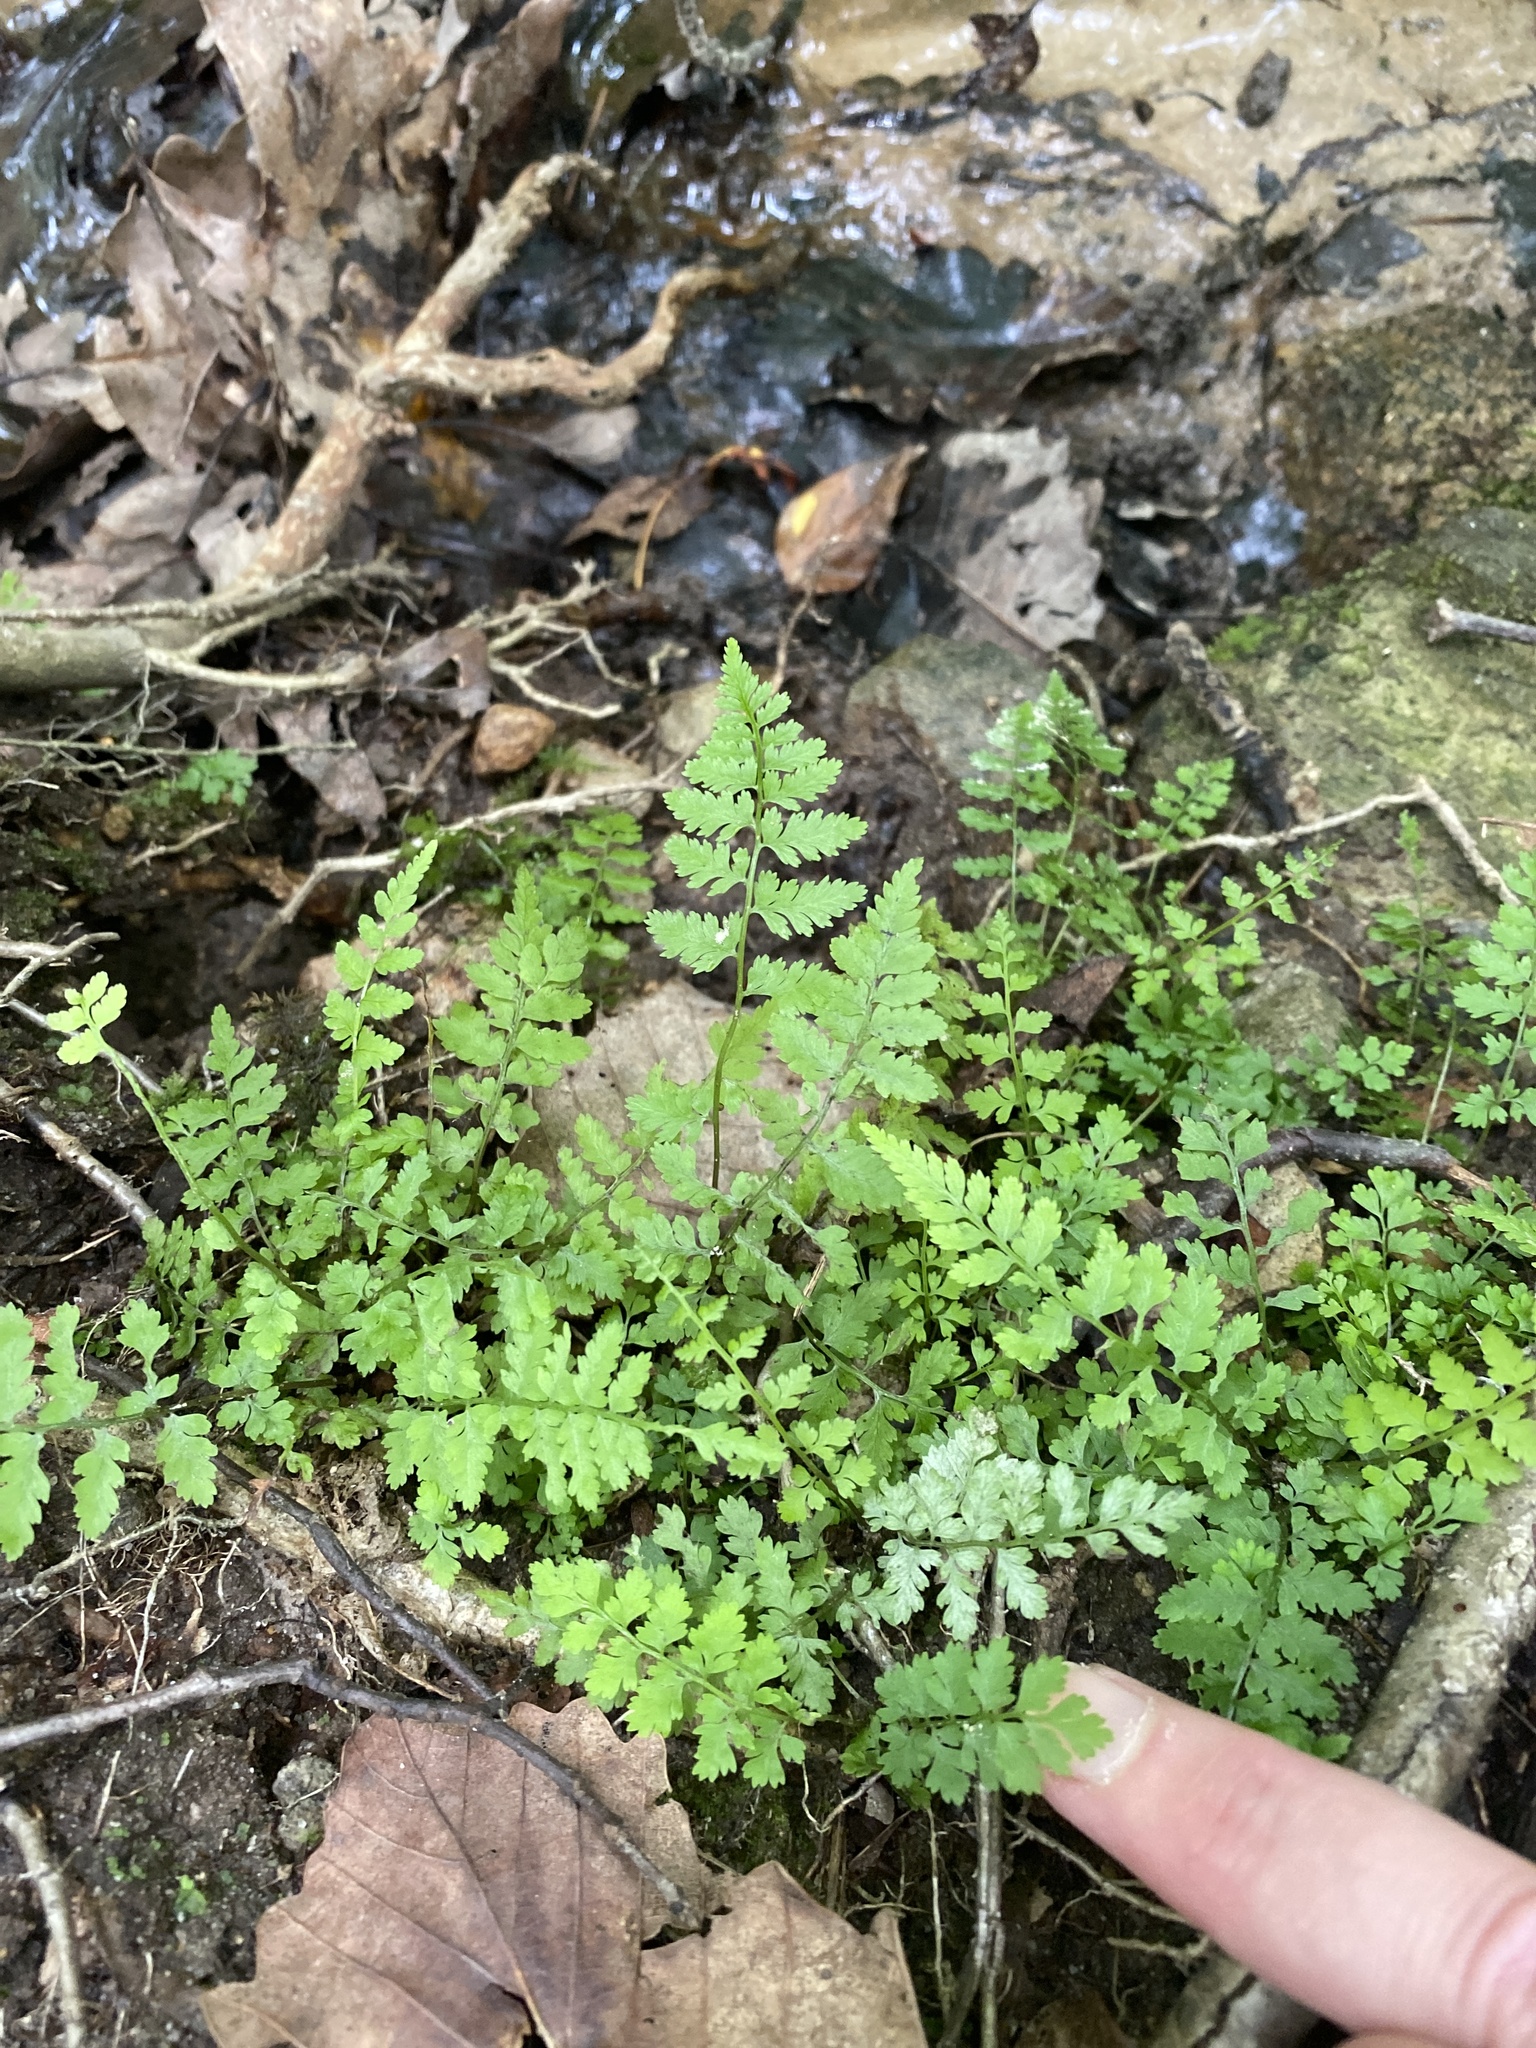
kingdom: Plantae
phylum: Tracheophyta
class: Polypodiopsida
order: Polypodiales
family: Cystopteridaceae
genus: Cystopteris
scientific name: Cystopteris protrusa
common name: Lowland brittle fern
